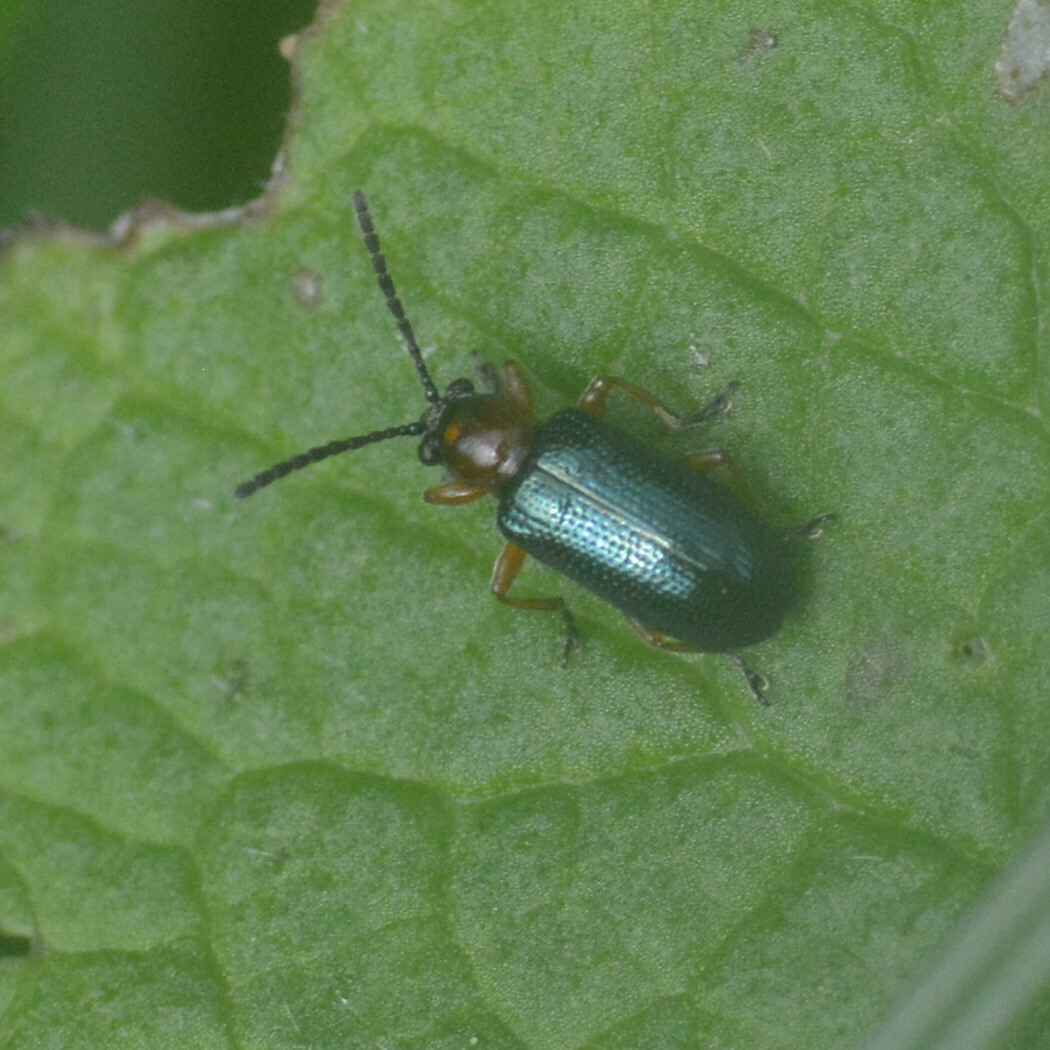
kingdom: Animalia
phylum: Arthropoda
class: Insecta
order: Coleoptera
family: Chrysomelidae
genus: Oulema
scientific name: Oulema
